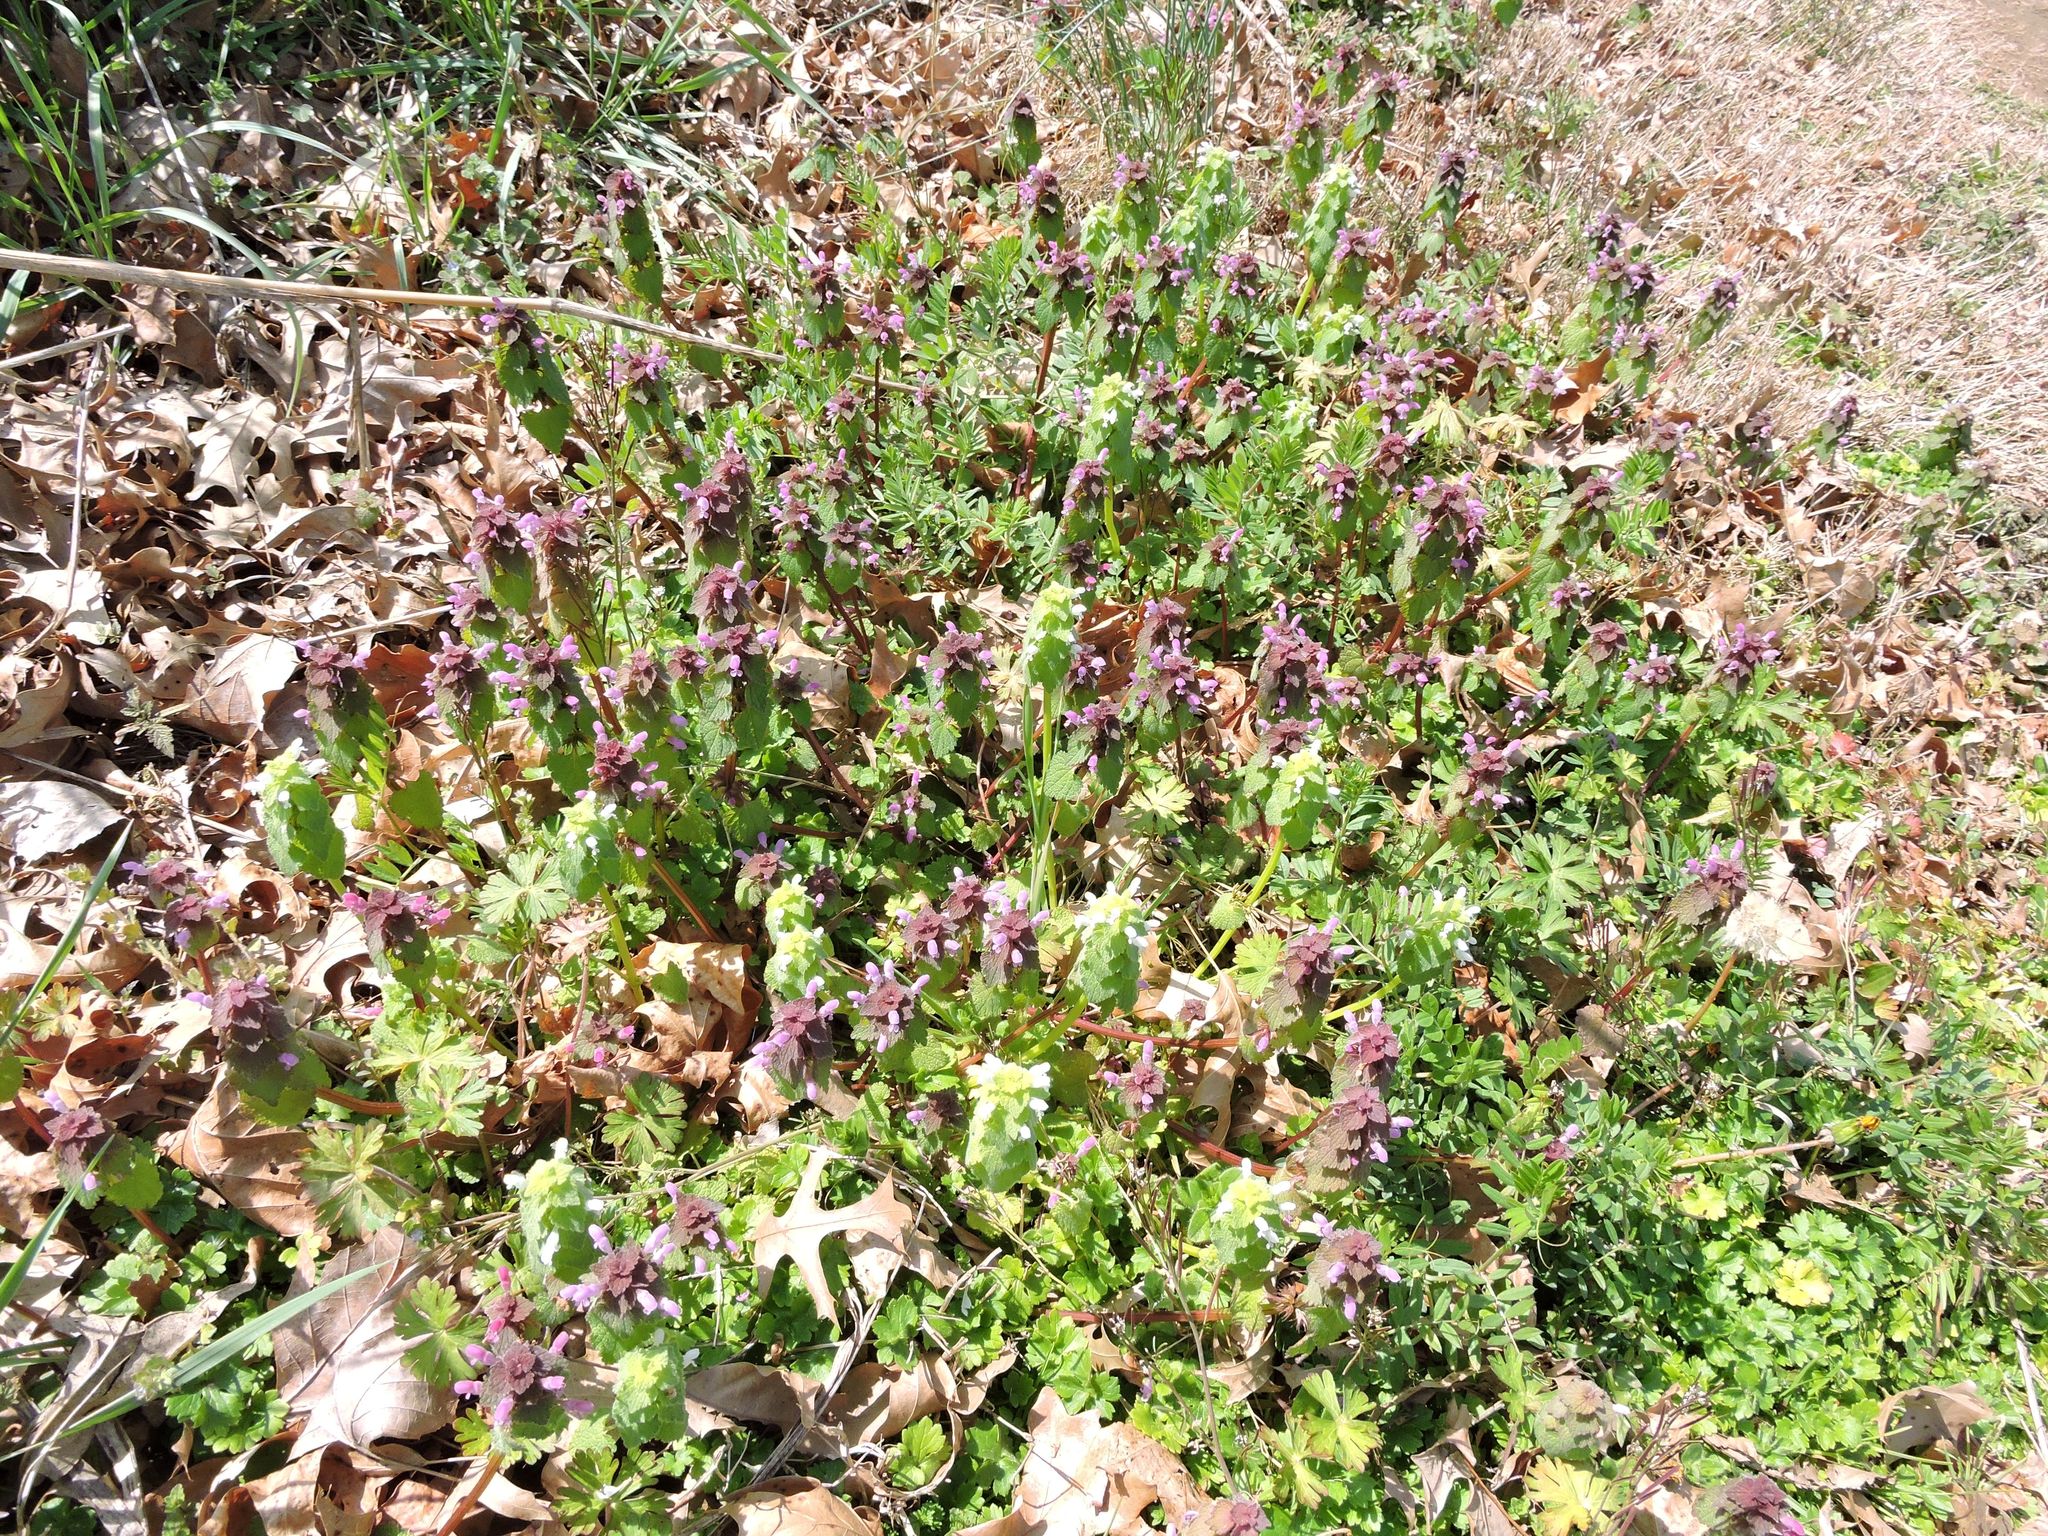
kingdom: Plantae
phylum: Tracheophyta
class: Magnoliopsida
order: Lamiales
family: Lamiaceae
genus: Lamium
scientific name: Lamium purpureum
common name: Red dead-nettle
